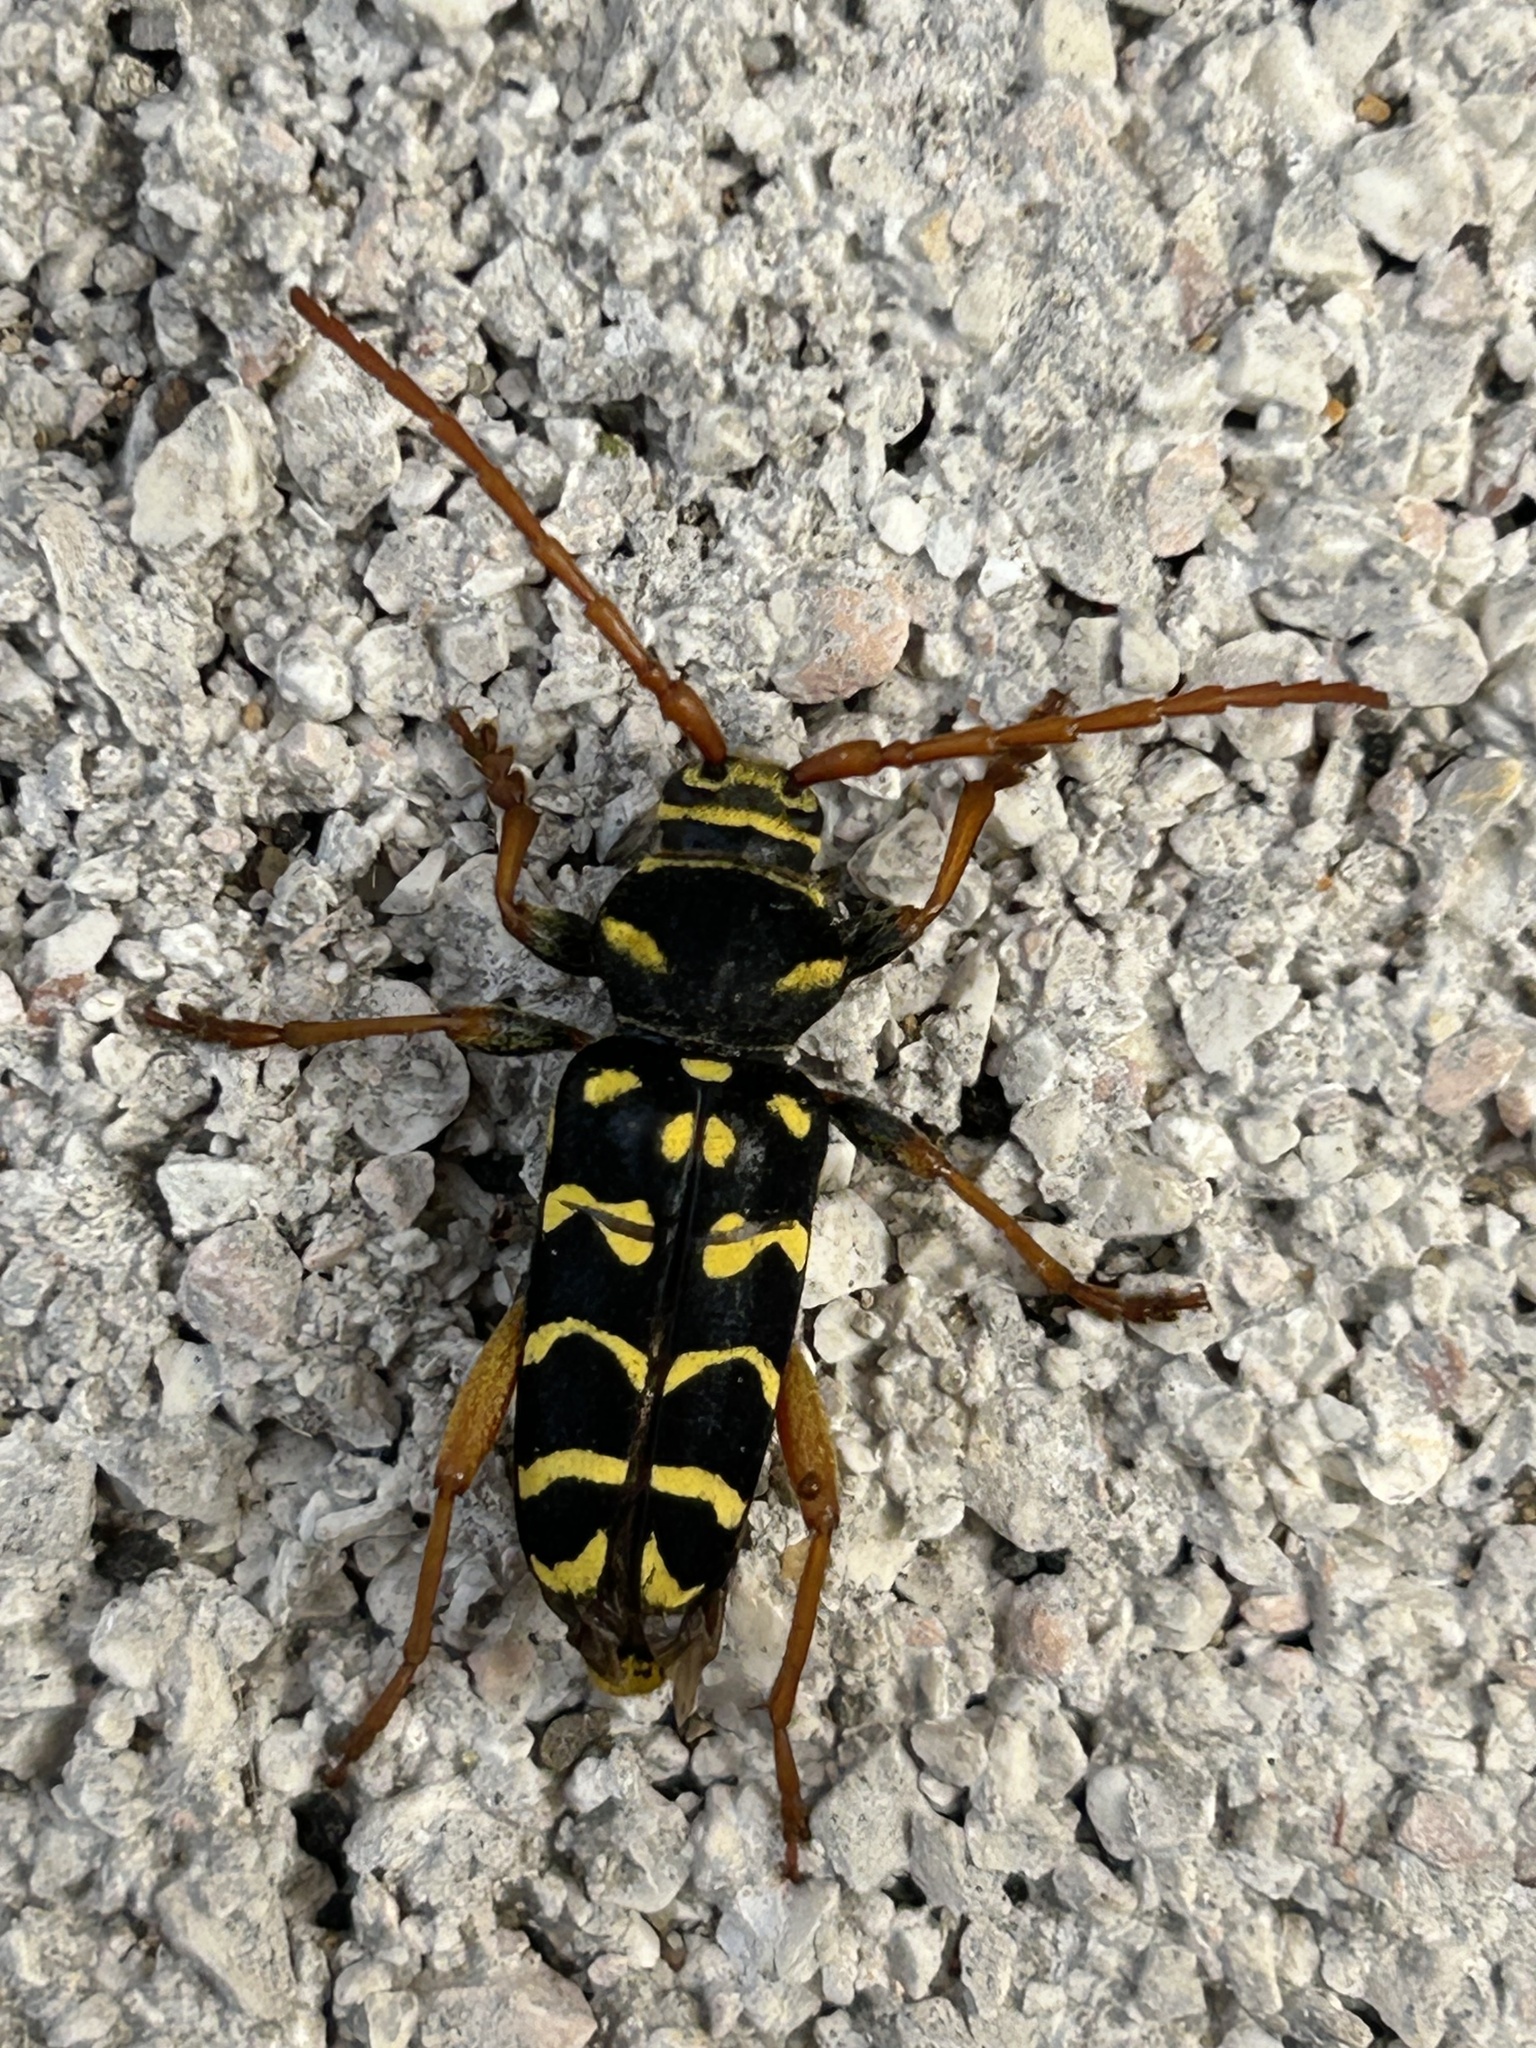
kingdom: Animalia
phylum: Arthropoda
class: Insecta
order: Coleoptera
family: Cerambycidae
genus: Plagionotus
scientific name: Plagionotus arcuatus
